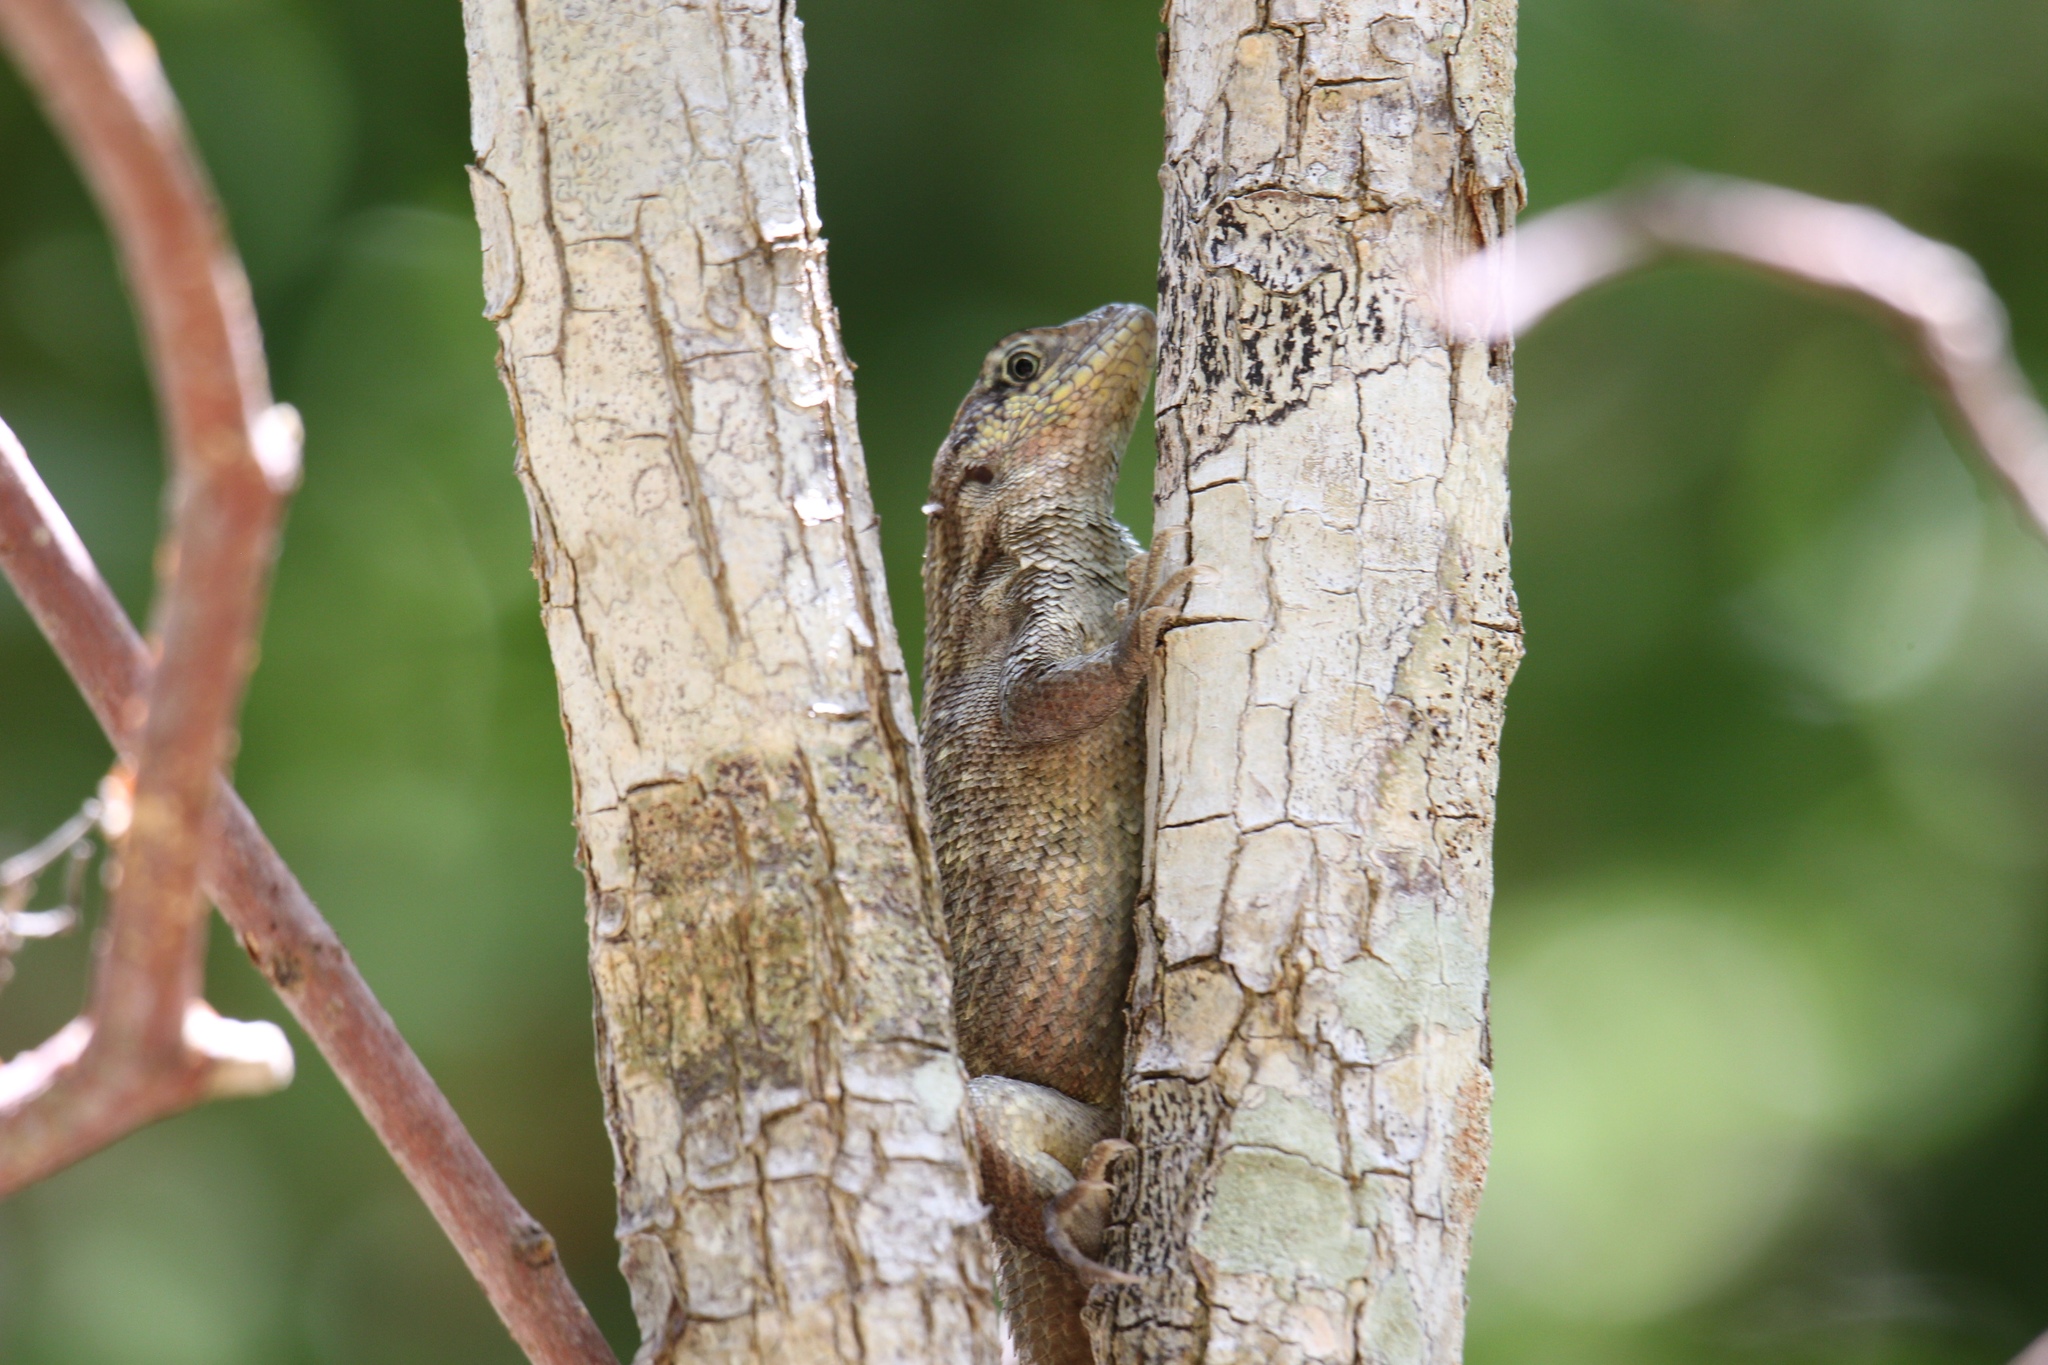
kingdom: Animalia
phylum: Chordata
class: Squamata
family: Leiocephalidae
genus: Leiocephalus
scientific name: Leiocephalus carinatus
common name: Northern curly-tailed lizard
